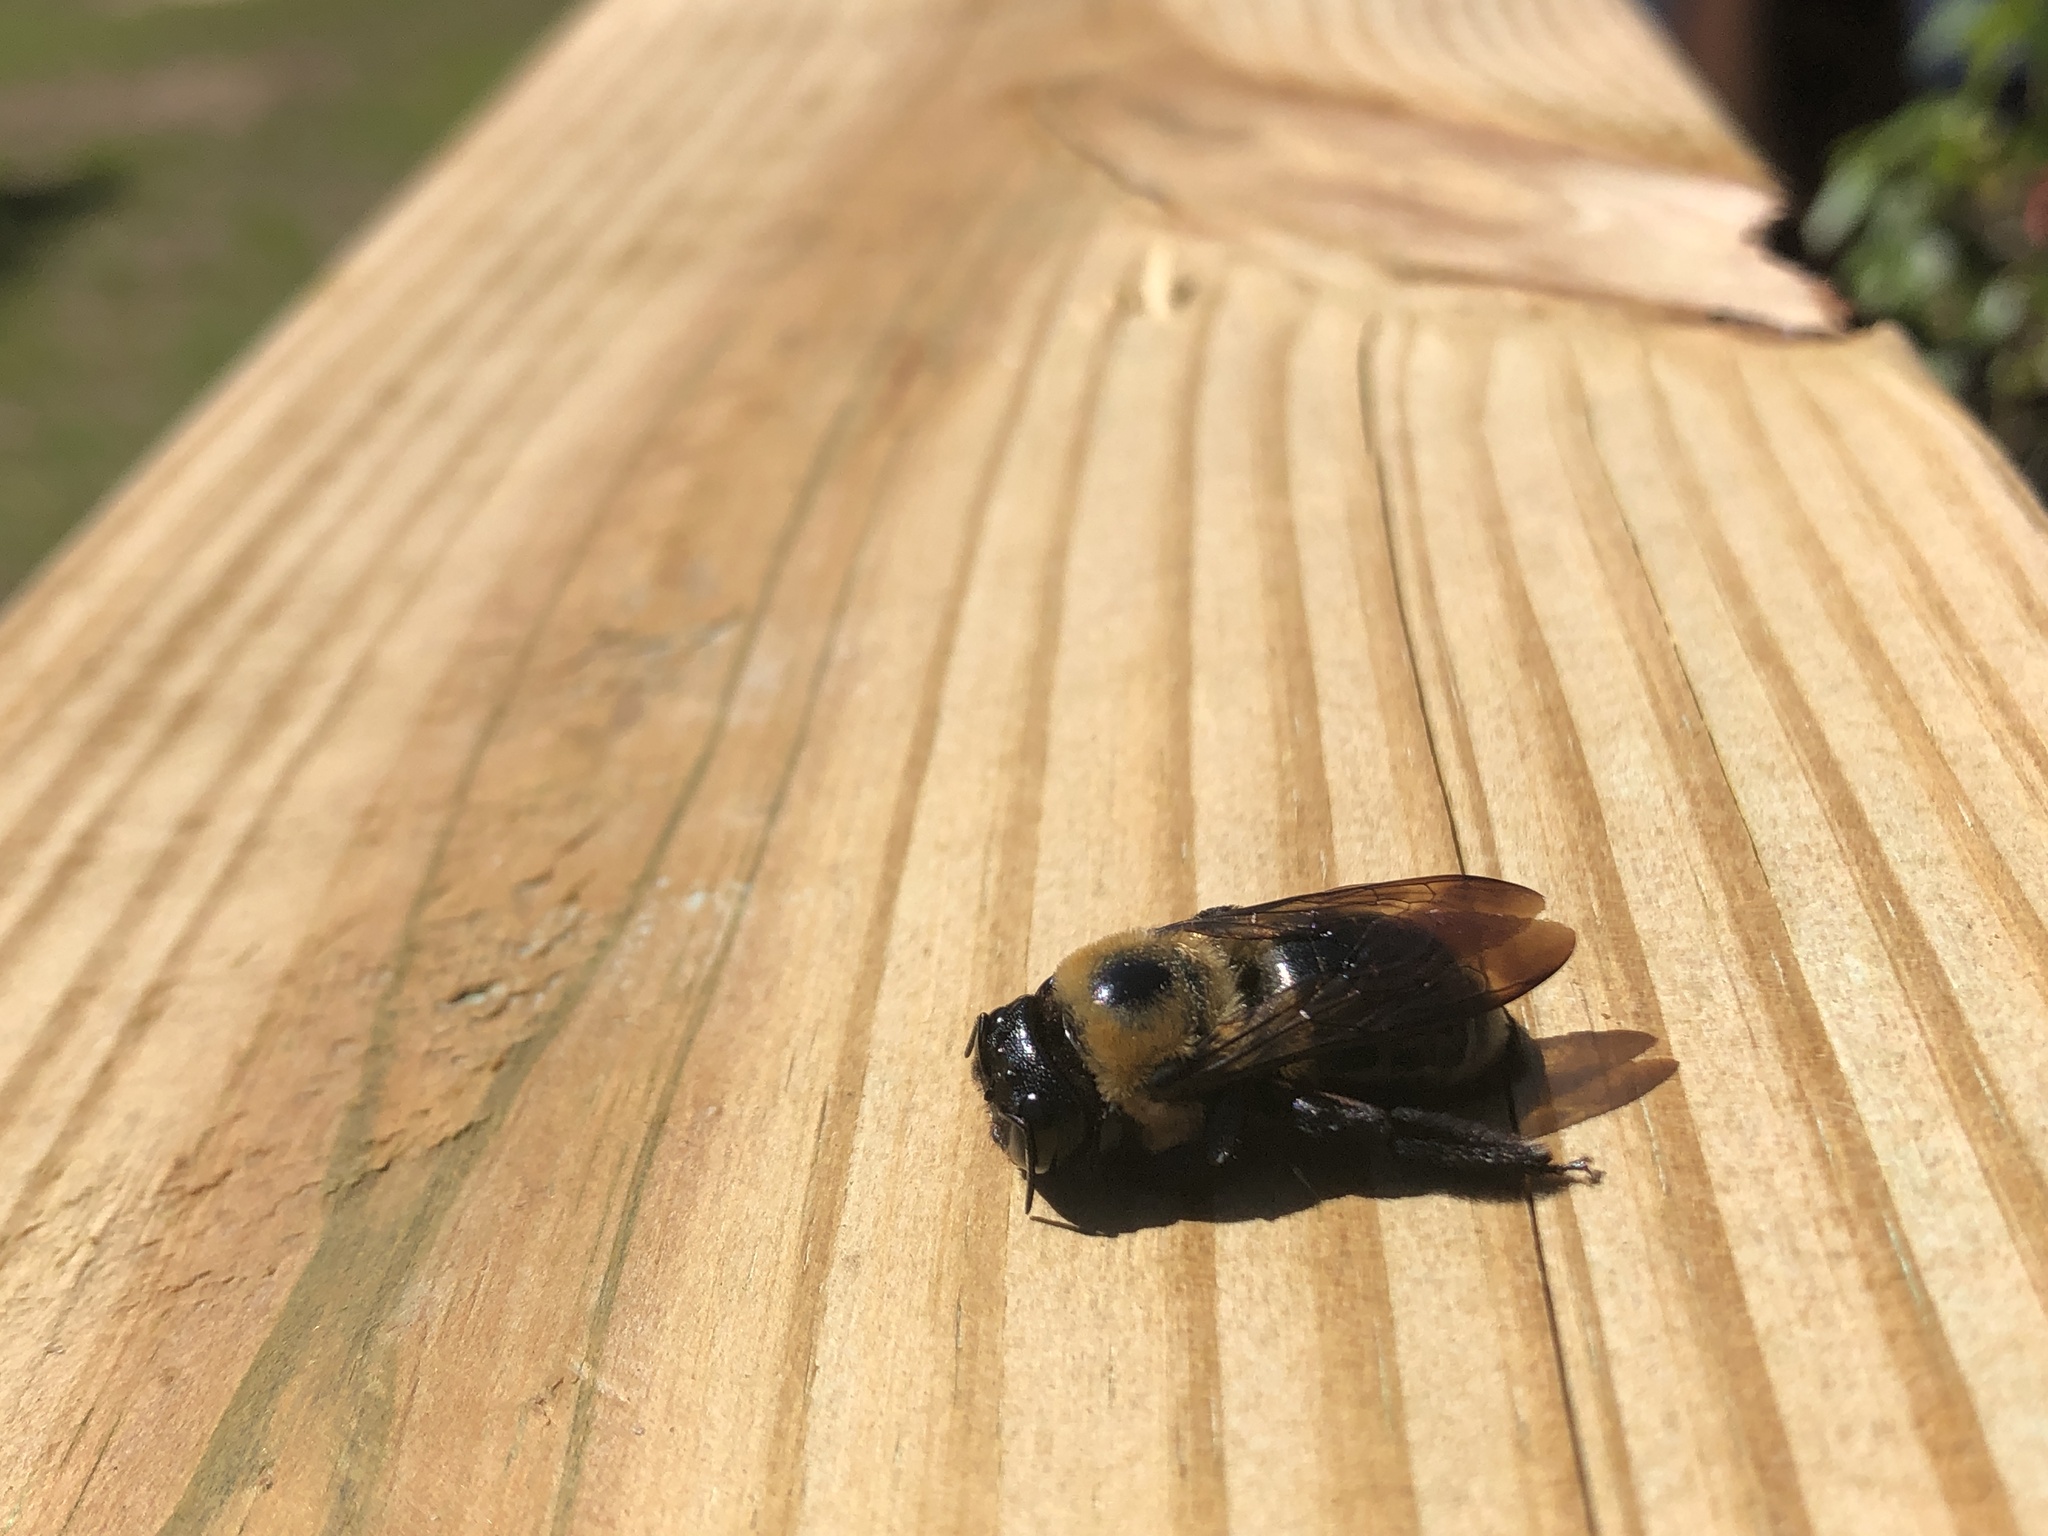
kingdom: Animalia
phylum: Arthropoda
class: Insecta
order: Hymenoptera
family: Apidae
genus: Xylocopa
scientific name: Xylocopa virginica
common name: Carpenter bee
